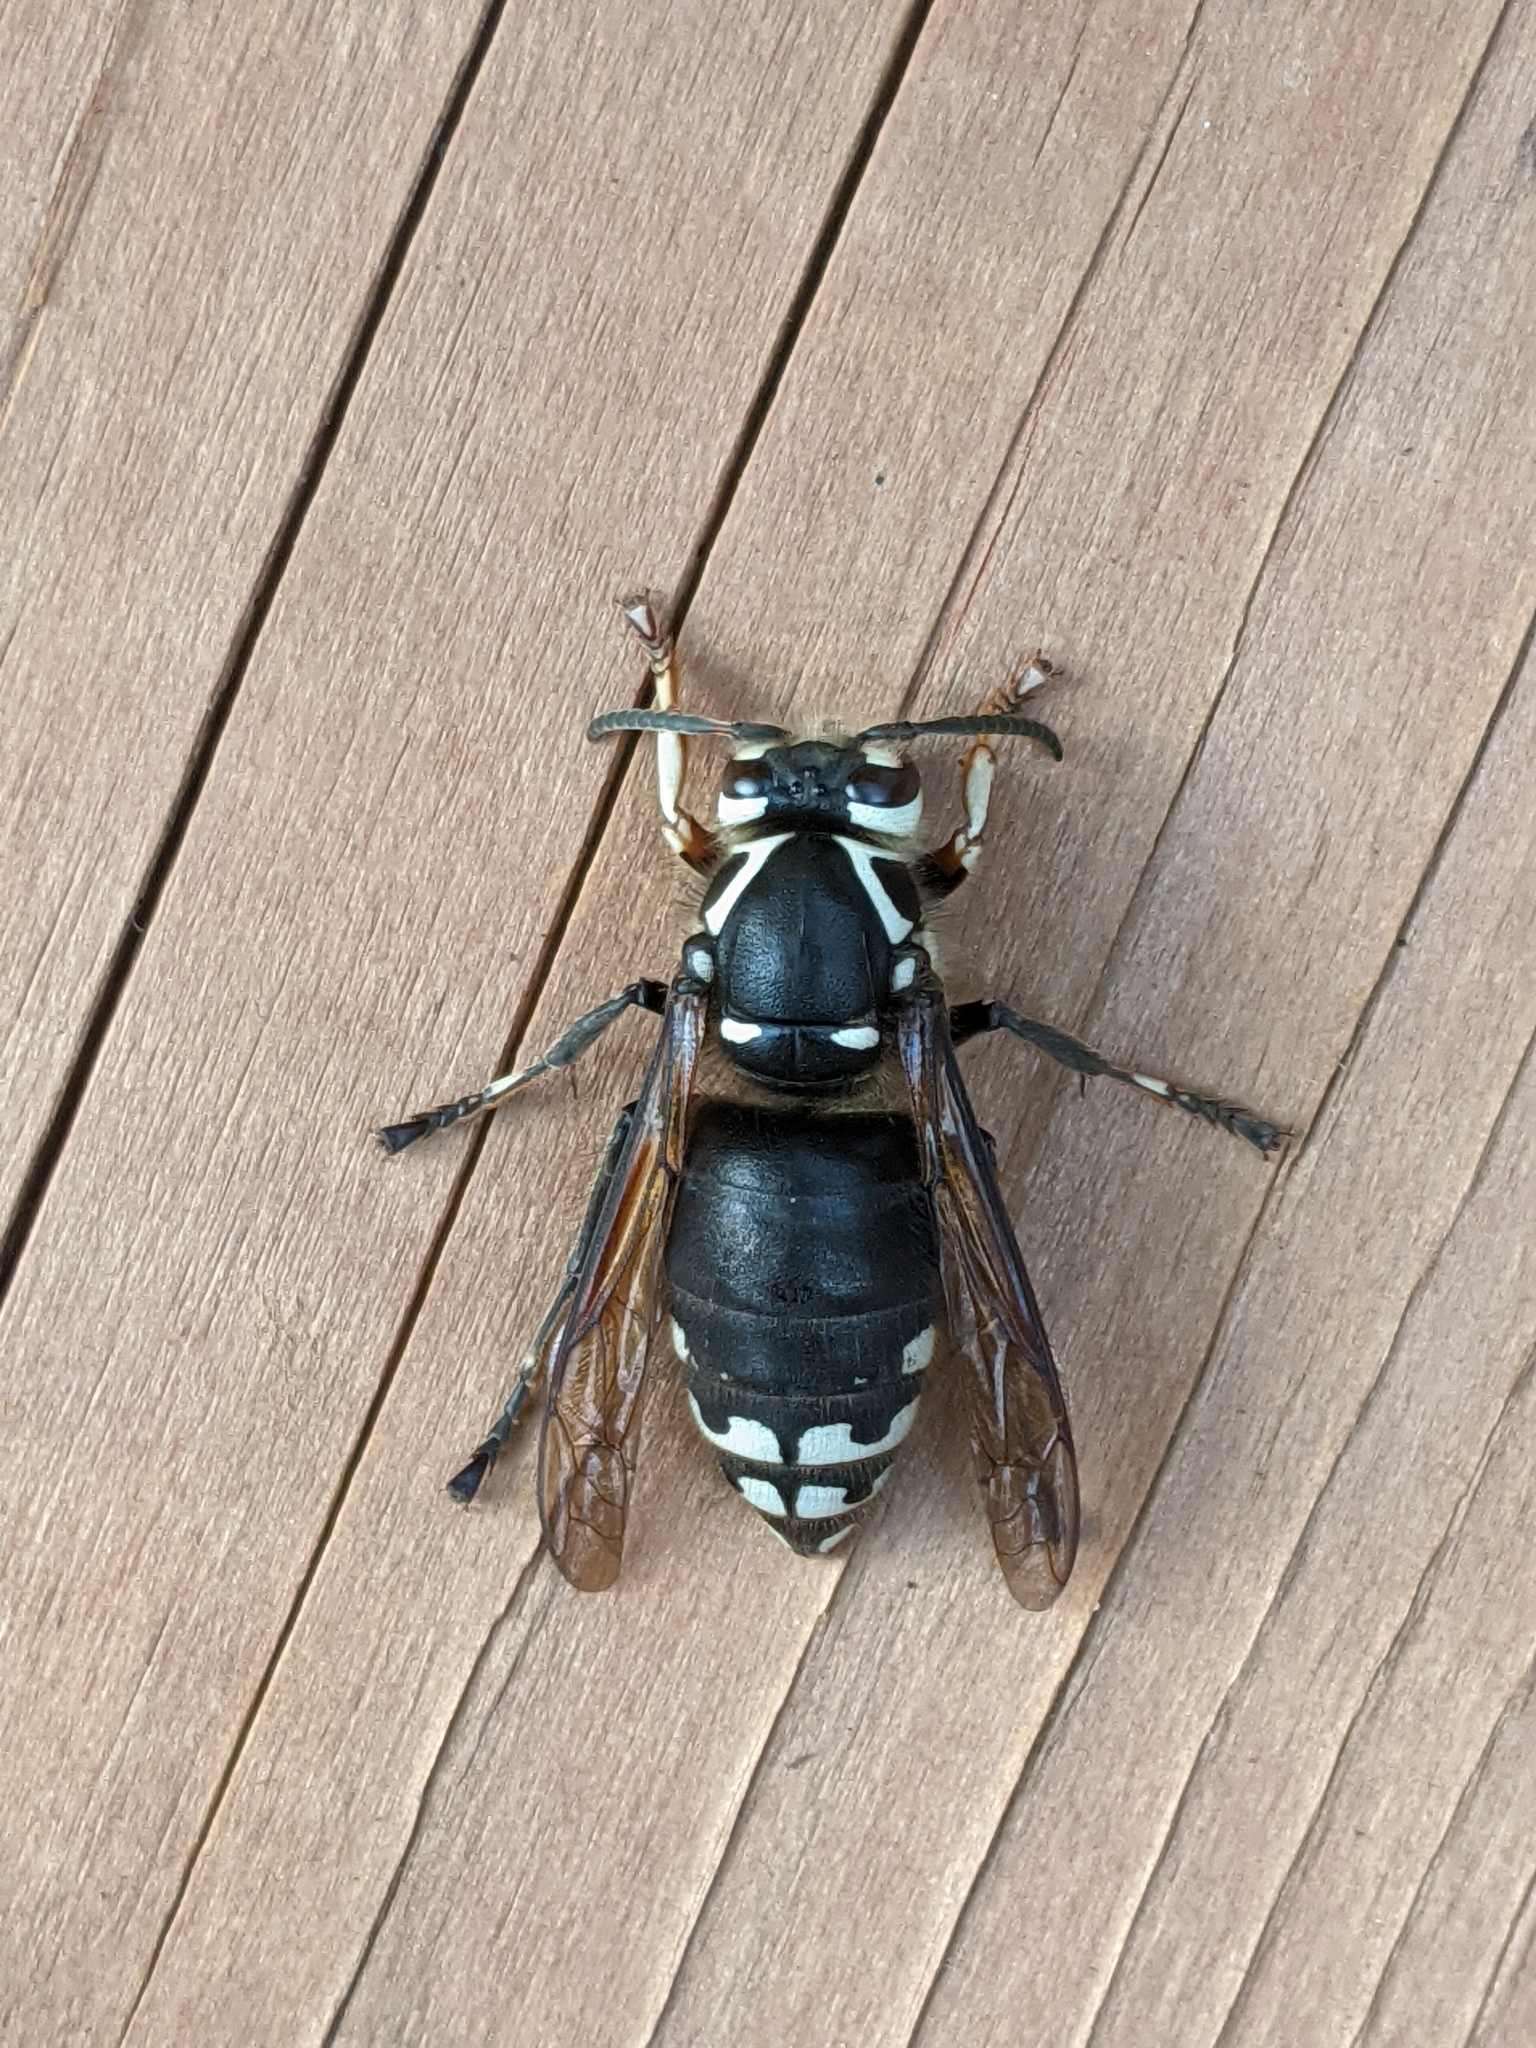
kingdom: Animalia
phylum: Arthropoda
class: Insecta
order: Hymenoptera
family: Vespidae
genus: Dolichovespula
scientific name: Dolichovespula maculata
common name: Bald-faced hornet
